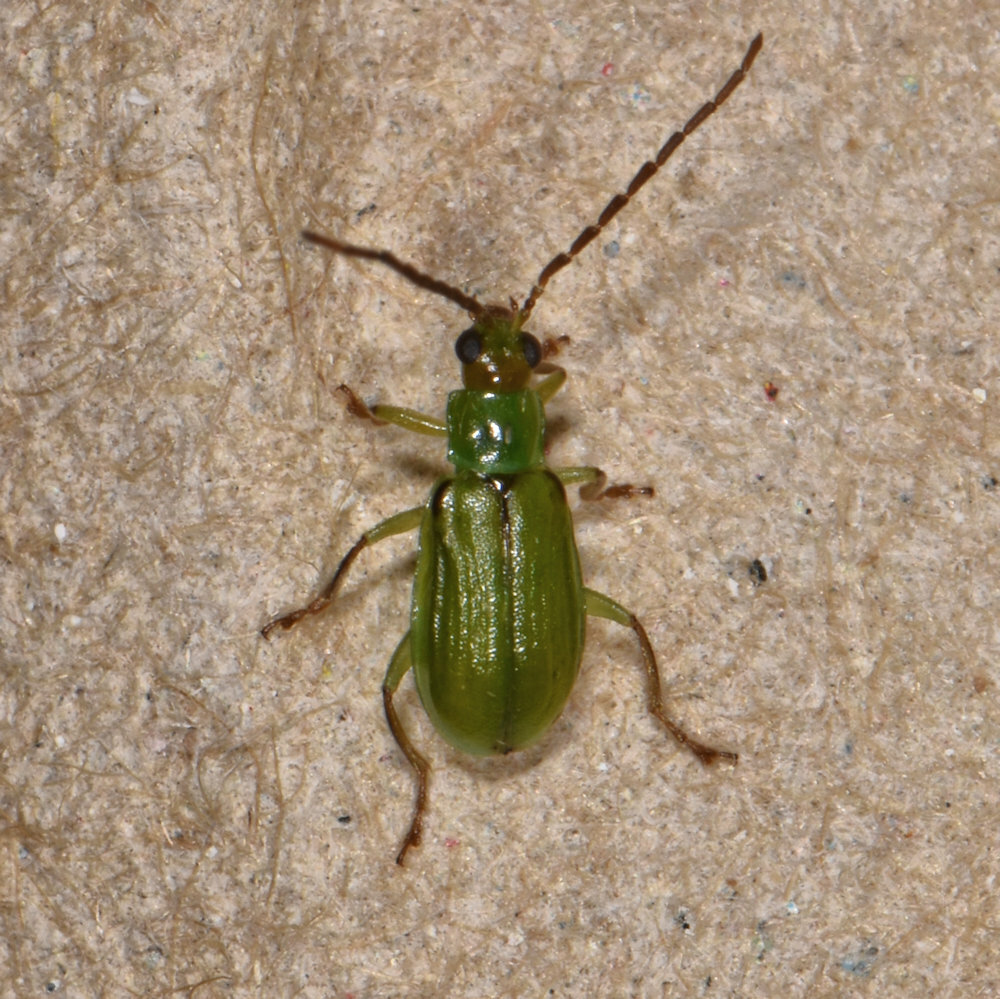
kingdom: Animalia
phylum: Arthropoda
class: Insecta
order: Coleoptera
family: Chrysomelidae
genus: Diabrotica
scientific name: Diabrotica barberi
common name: Northern corn rootworm
